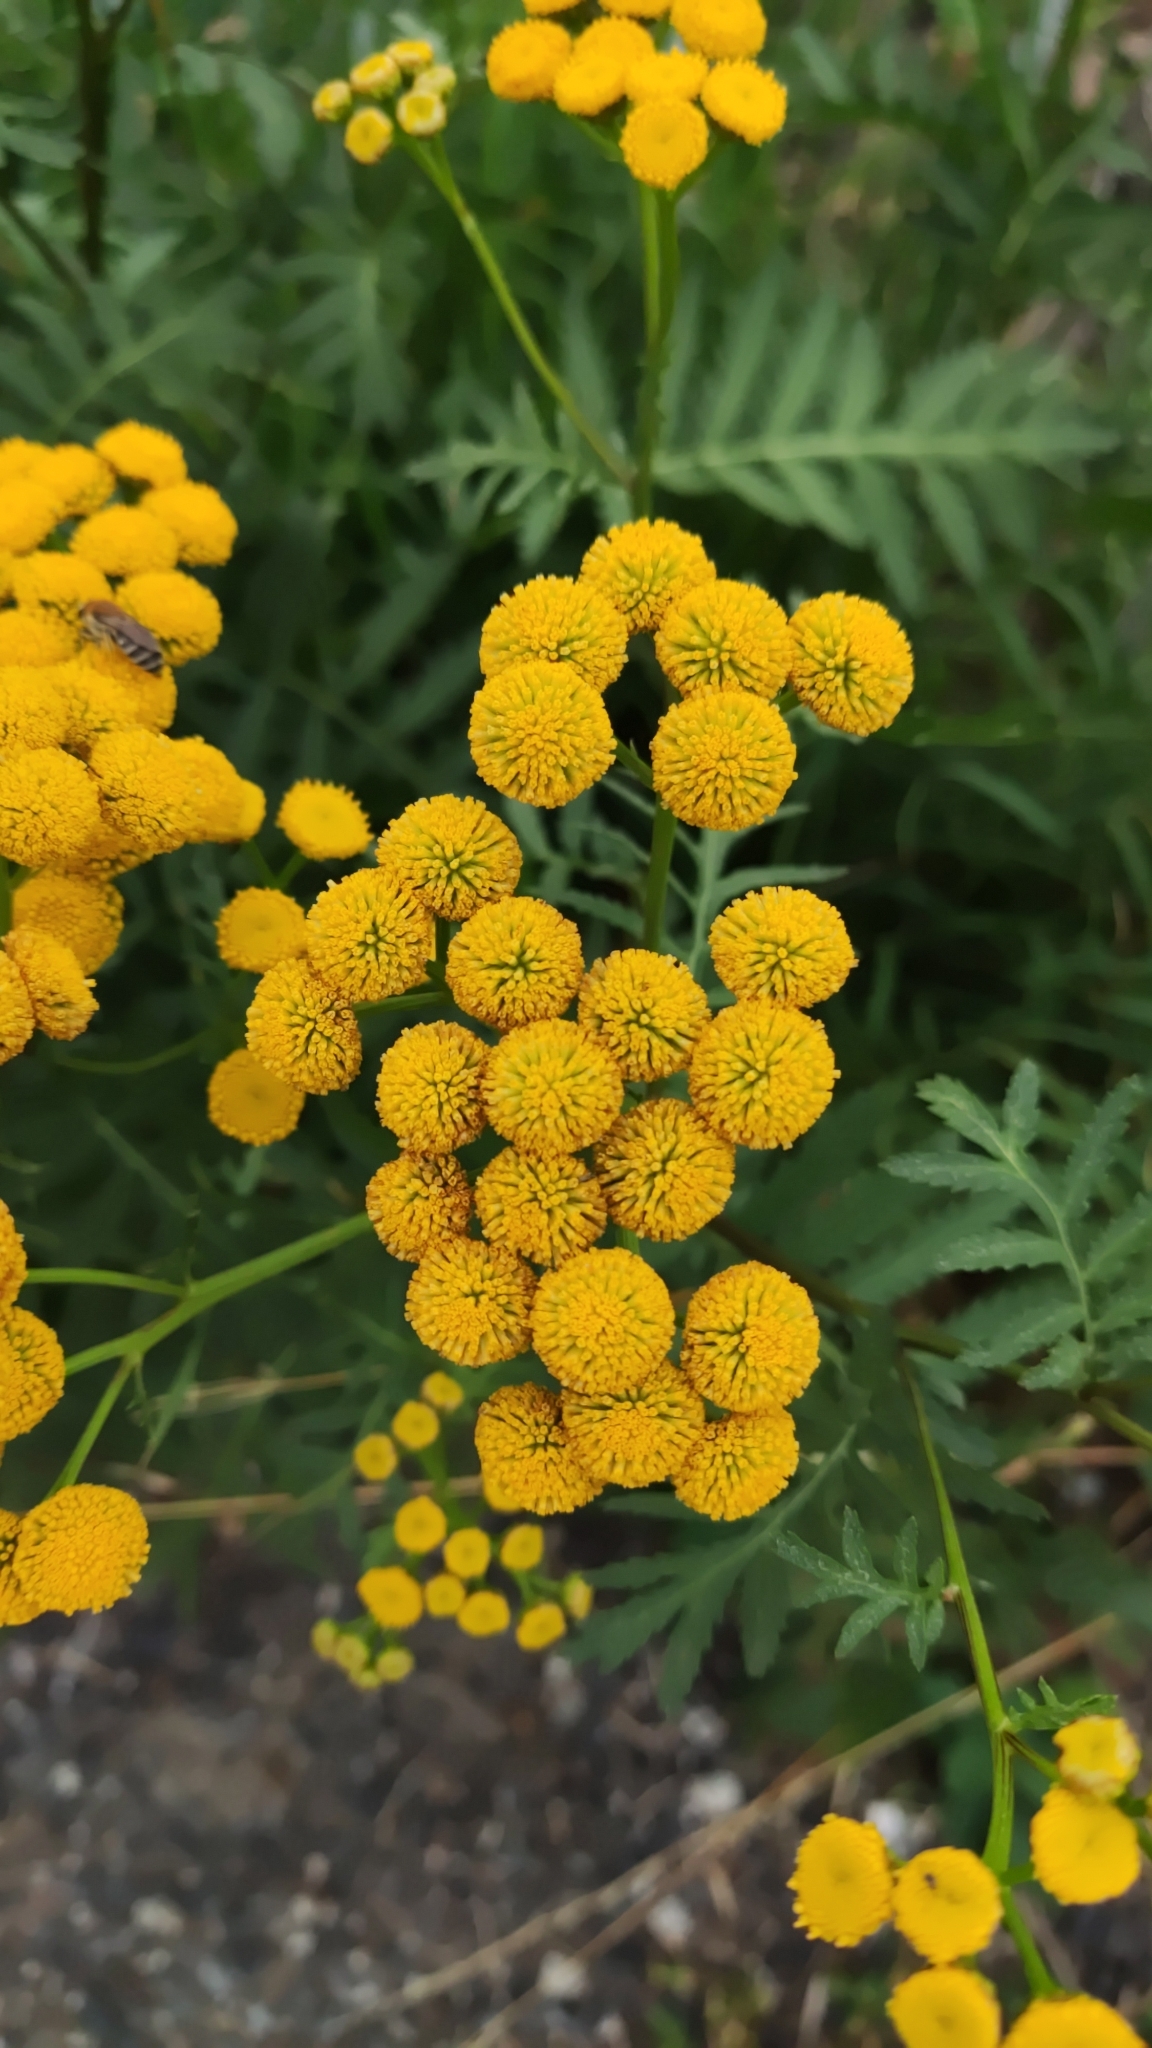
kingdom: Plantae
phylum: Tracheophyta
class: Magnoliopsida
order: Asterales
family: Asteraceae
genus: Tanacetum
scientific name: Tanacetum vulgare
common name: Common tansy
